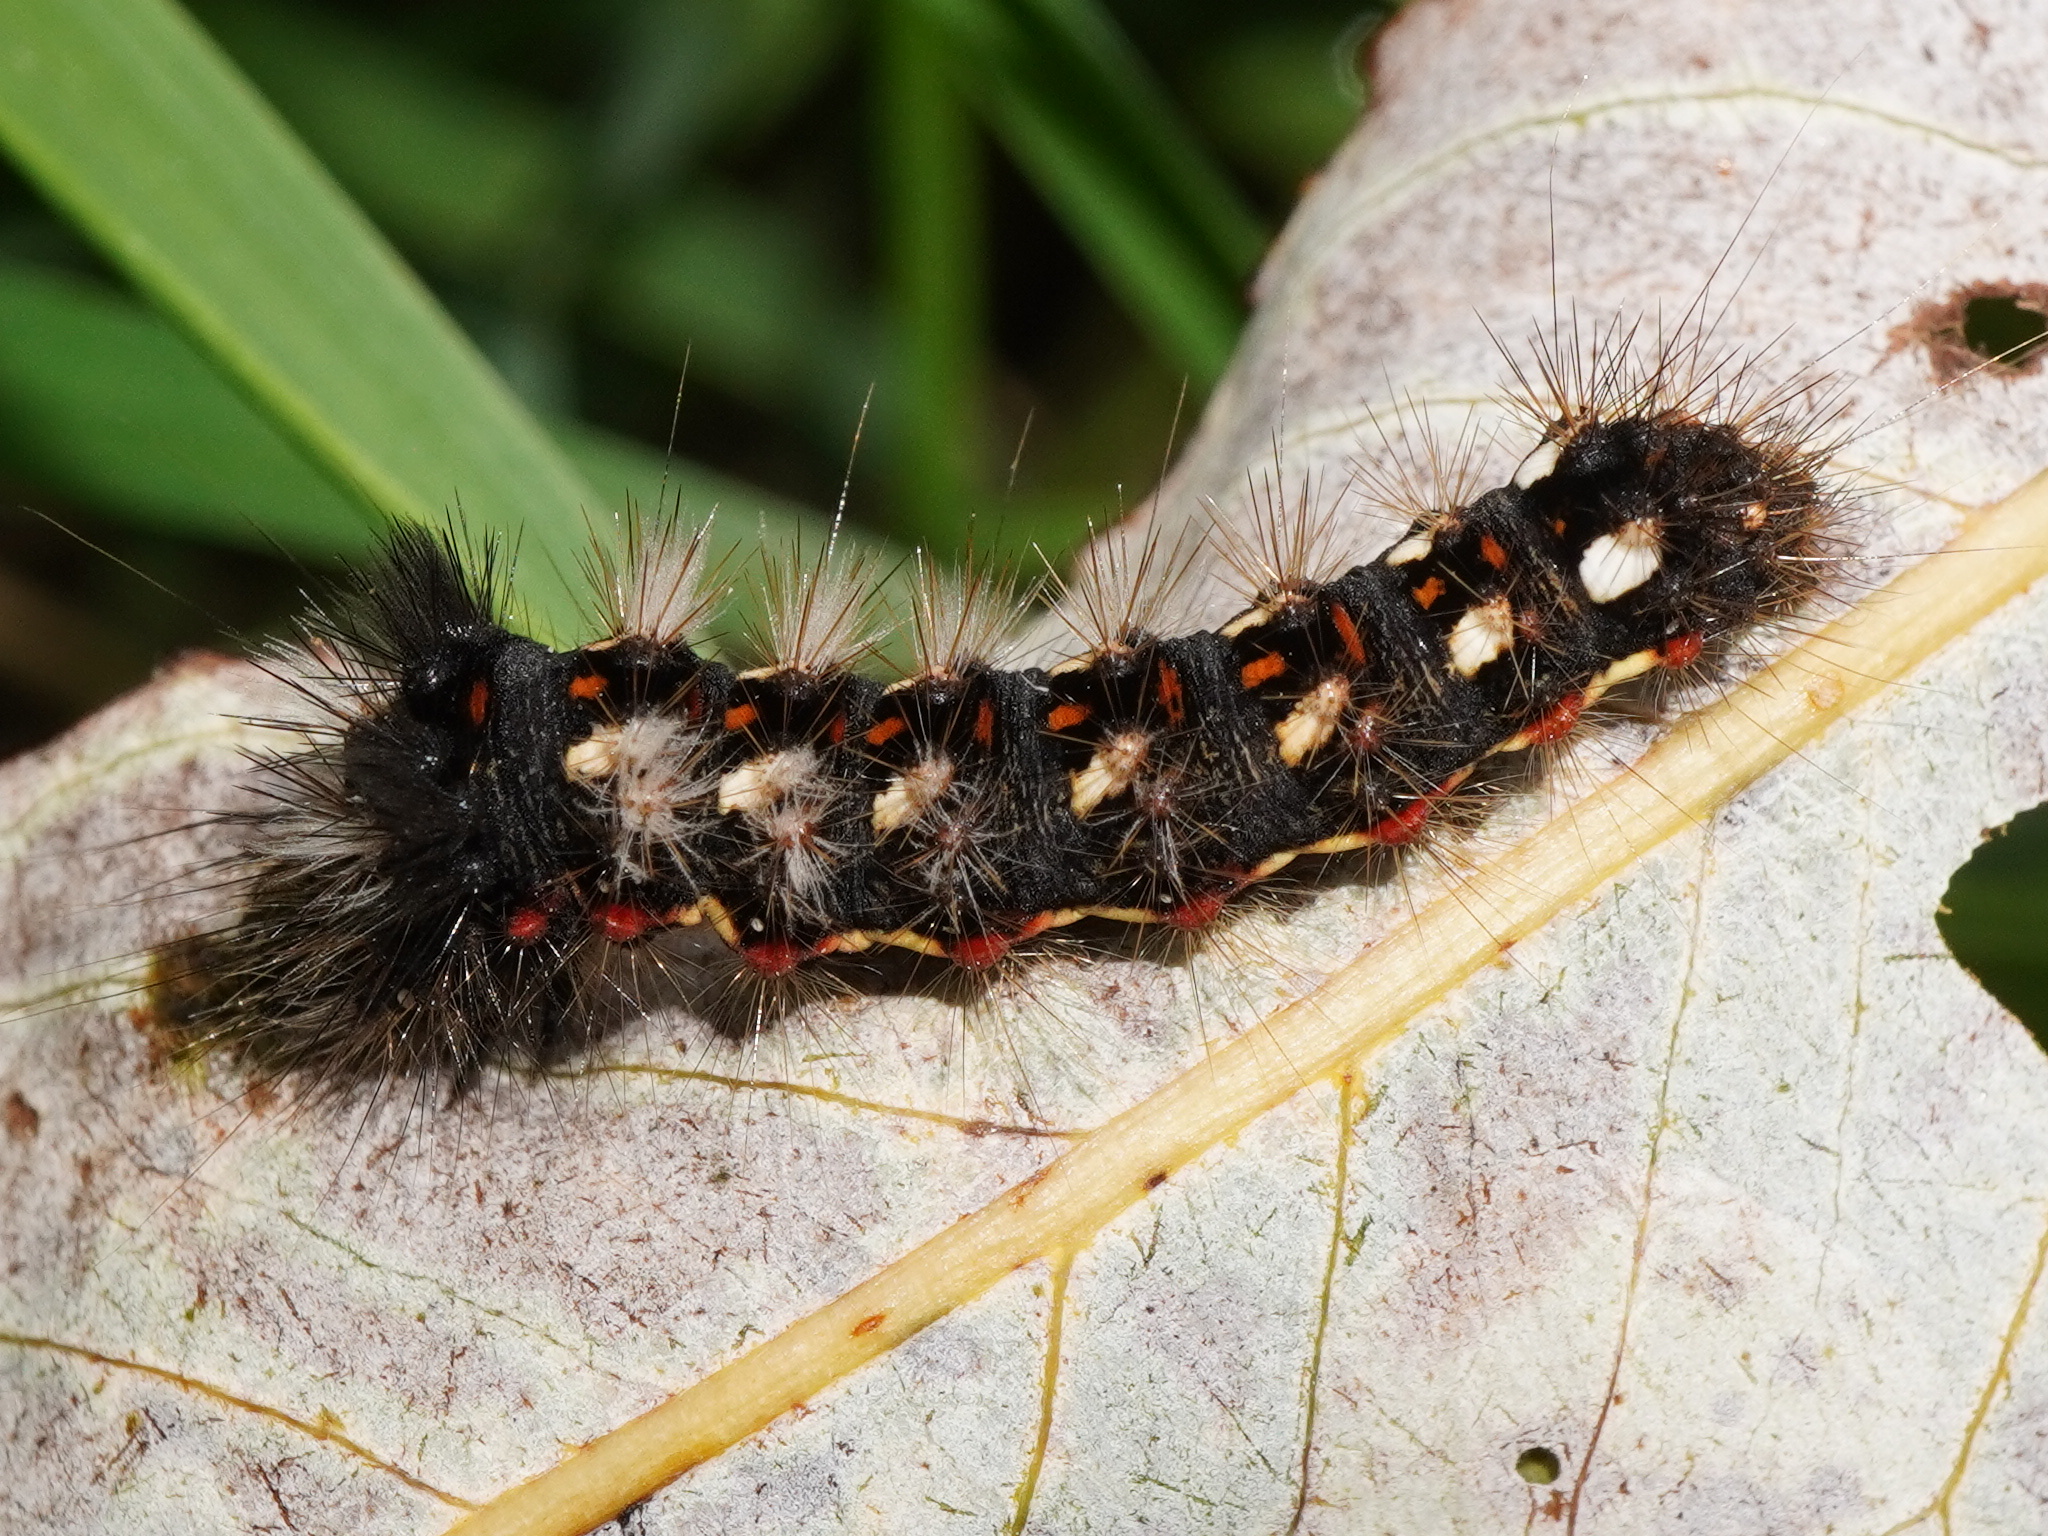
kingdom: Animalia
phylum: Arthropoda
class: Insecta
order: Lepidoptera
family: Noctuidae
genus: Acronicta
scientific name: Acronicta rumicis
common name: Knot grass
